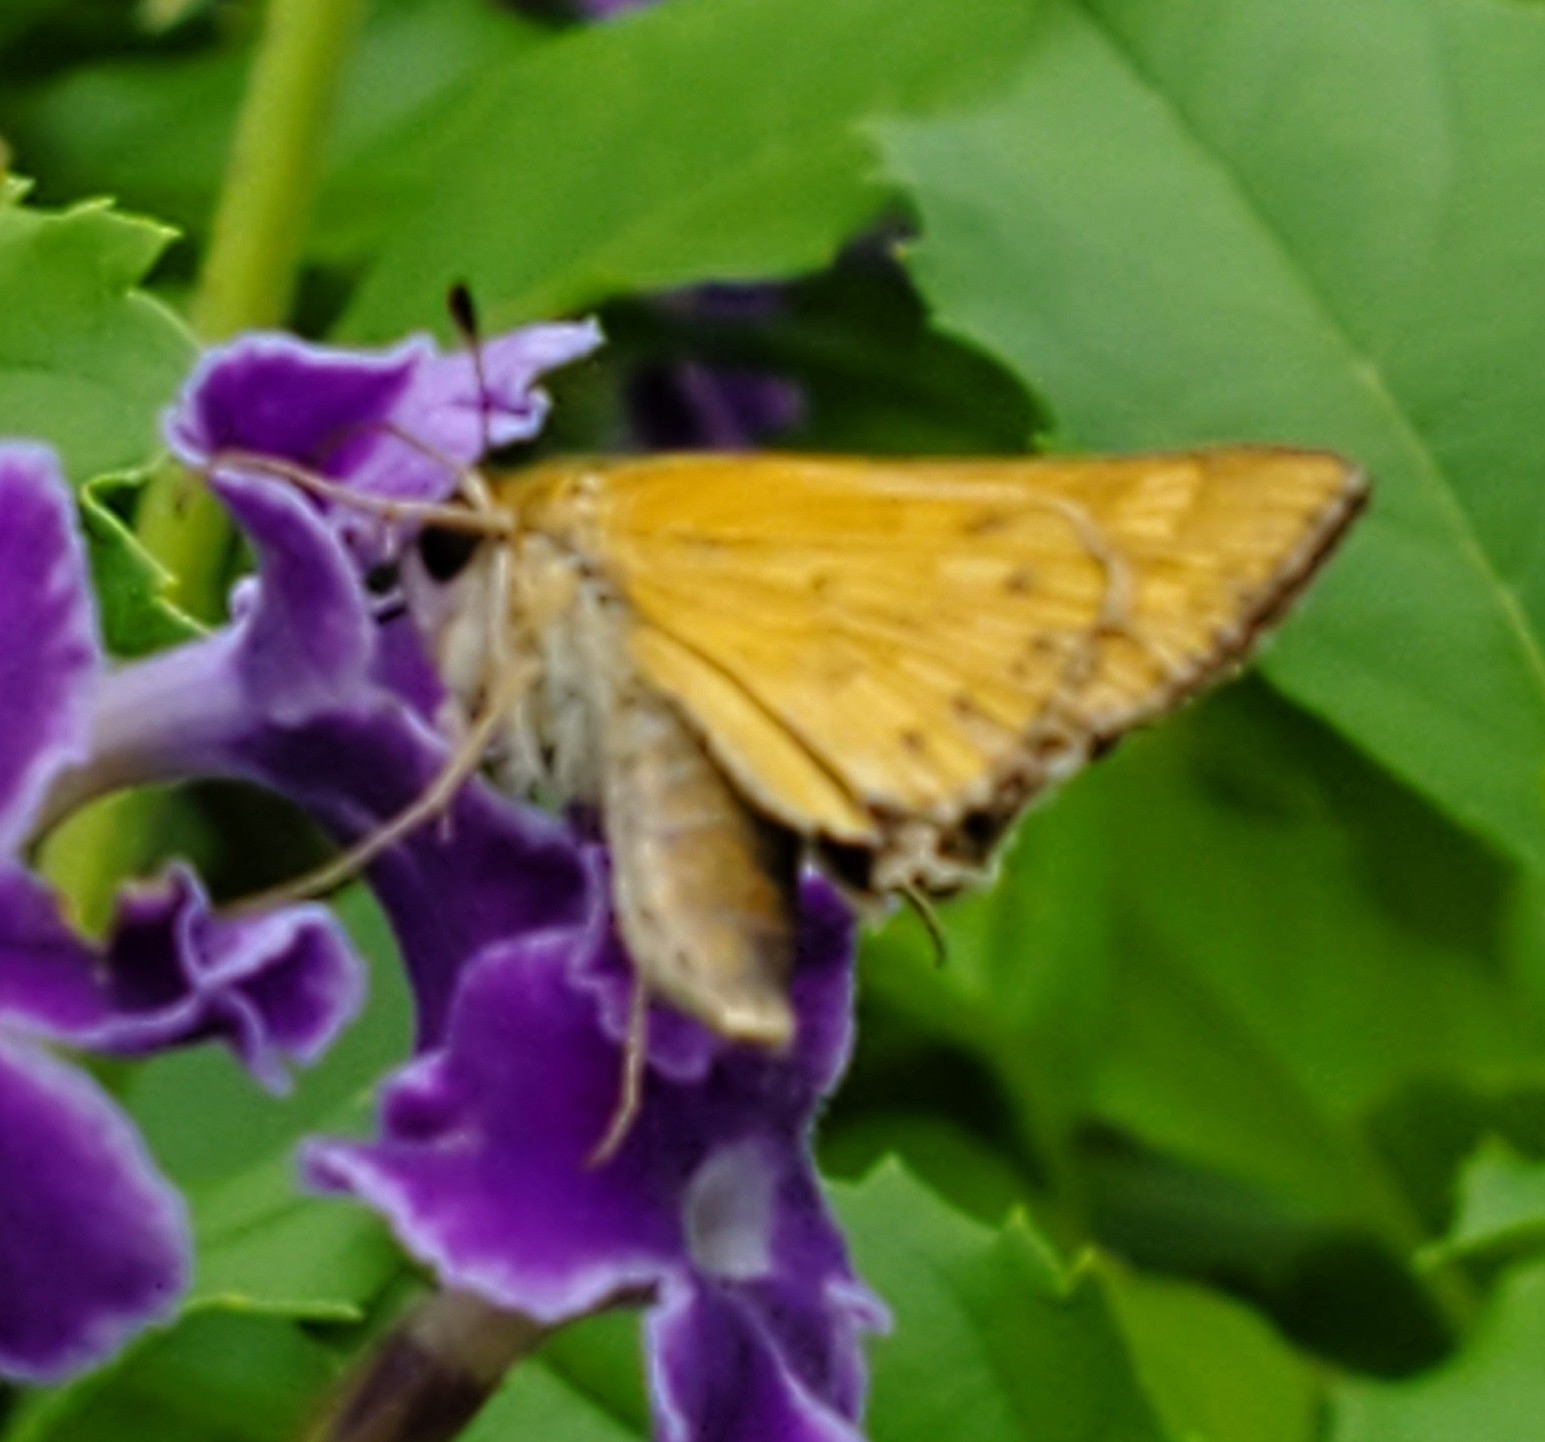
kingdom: Animalia
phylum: Arthropoda
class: Insecta
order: Lepidoptera
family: Hesperiidae
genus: Hylephila
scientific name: Hylephila phyleus
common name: Fiery skipper
